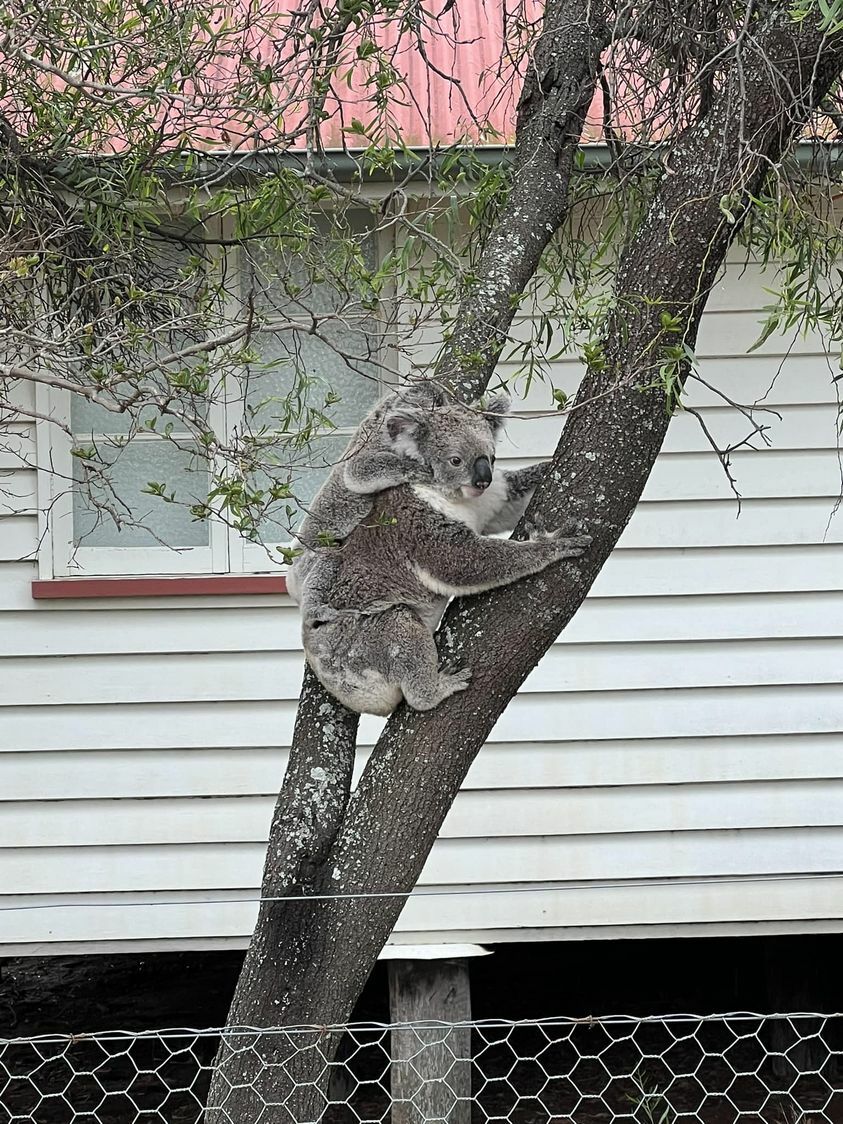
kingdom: Animalia
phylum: Chordata
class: Mammalia
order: Diprotodontia
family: Phascolarctidae
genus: Phascolarctos
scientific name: Phascolarctos cinereus
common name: Koala
